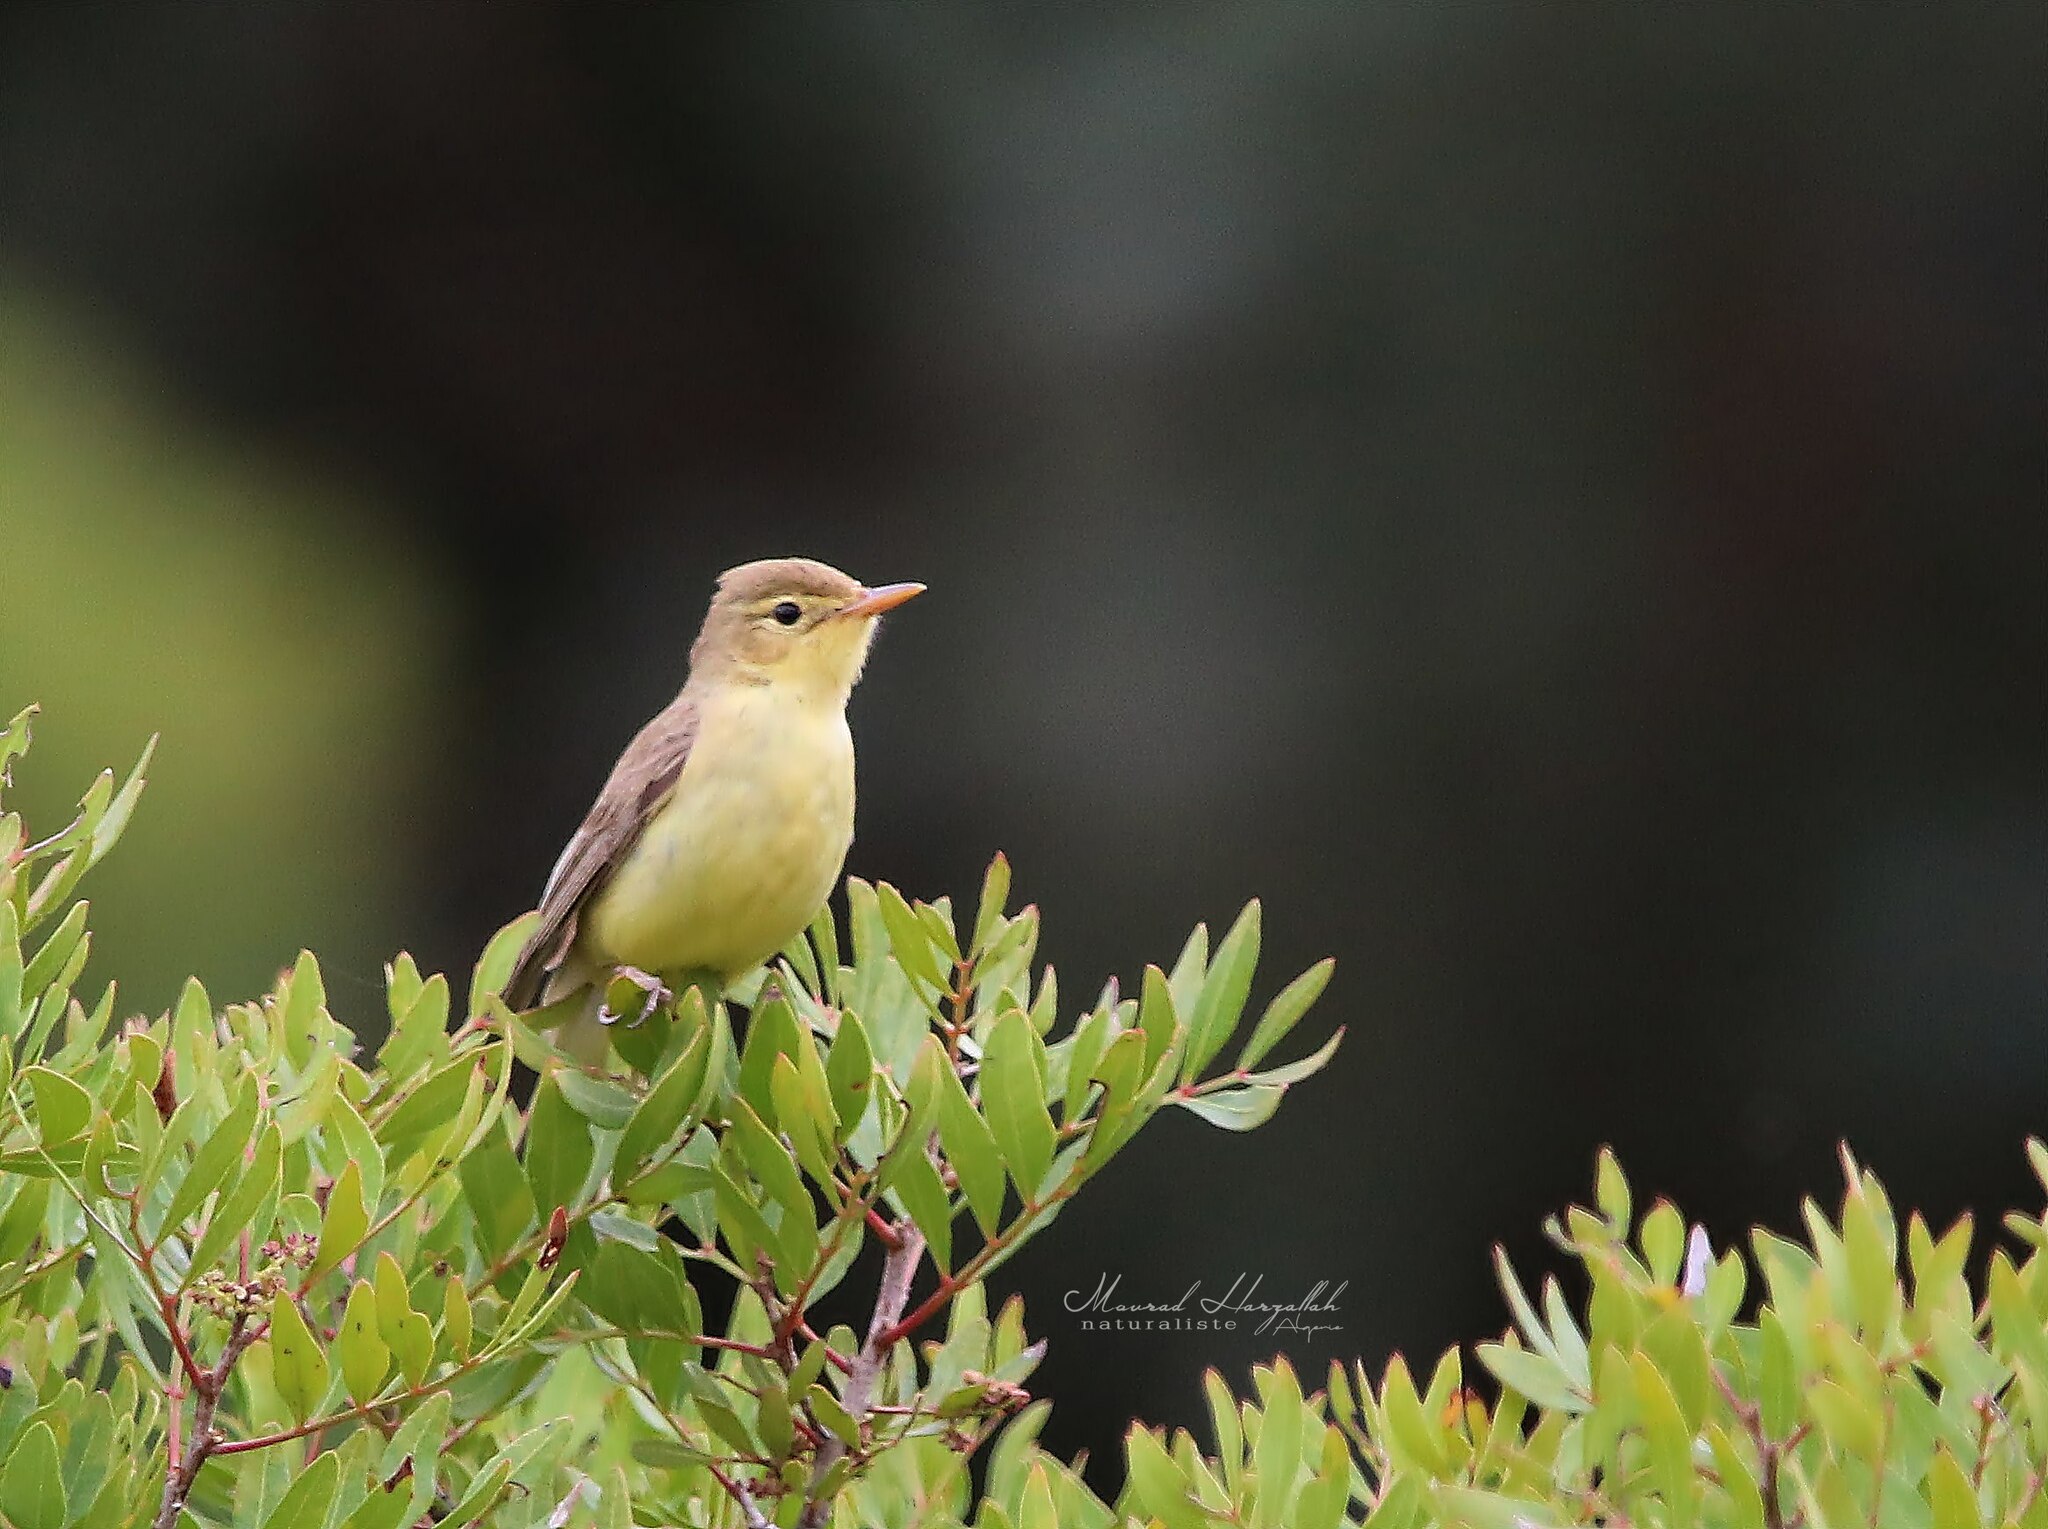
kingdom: Animalia
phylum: Chordata
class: Aves
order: Passeriformes
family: Acrocephalidae
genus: Hippolais
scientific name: Hippolais polyglotta
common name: Melodious warbler
